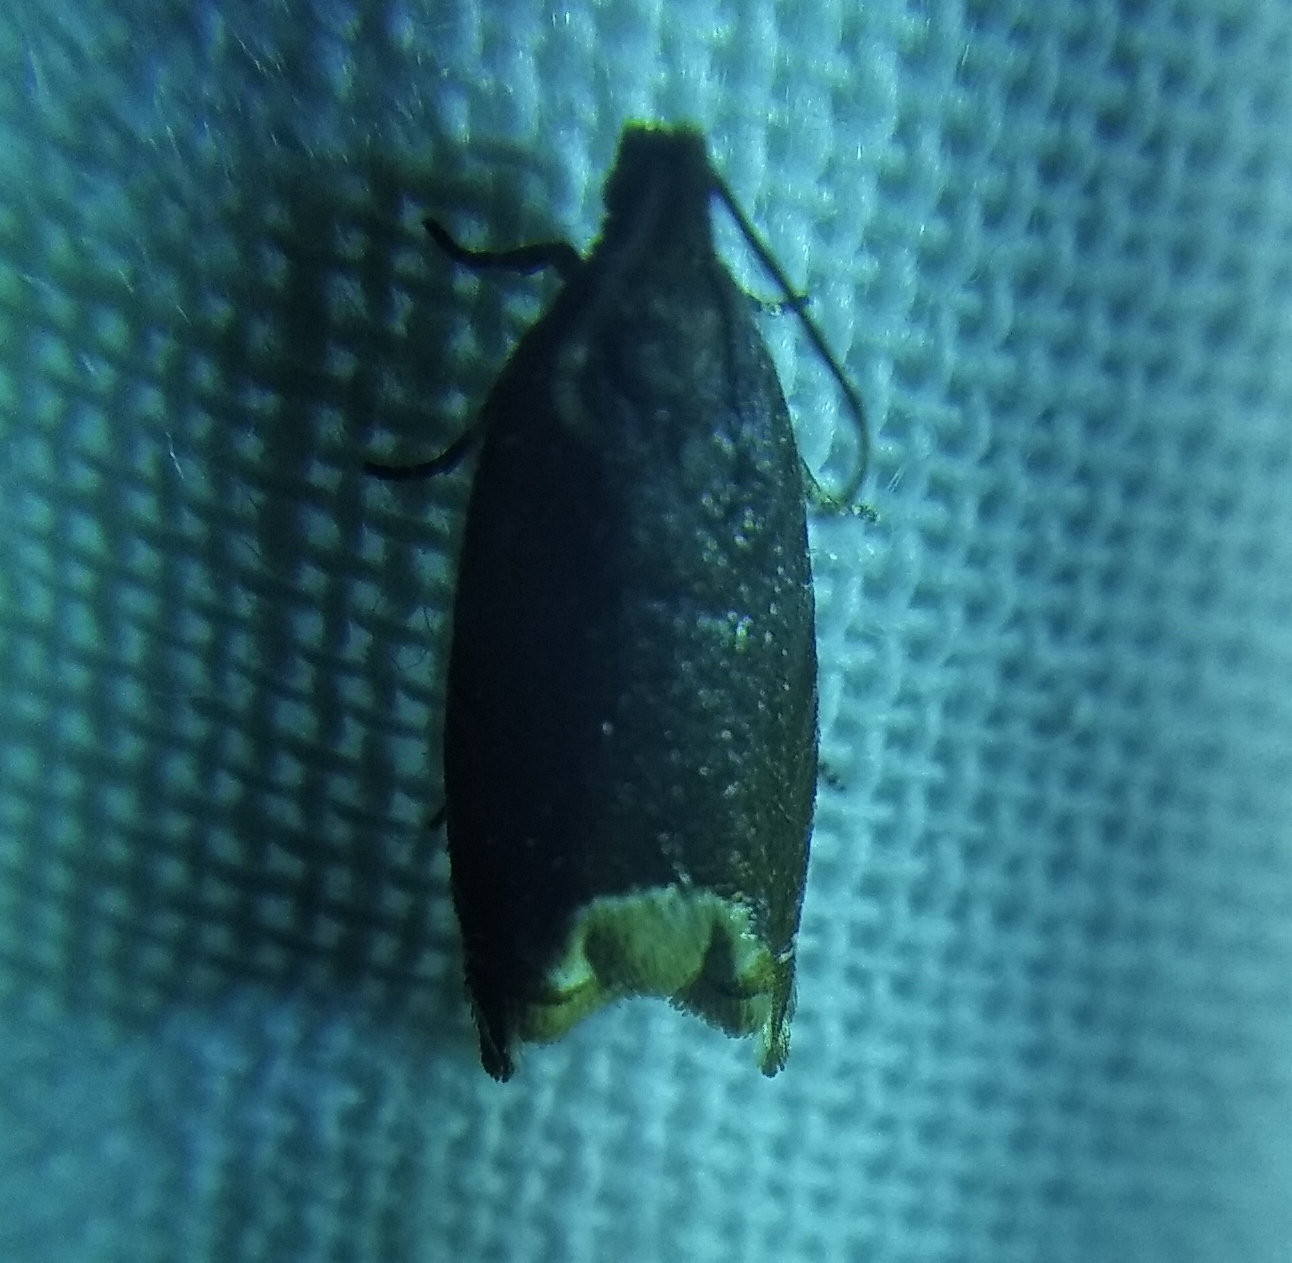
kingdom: Animalia
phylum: Arthropoda
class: Insecta
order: Lepidoptera
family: Tortricidae
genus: Ancylis
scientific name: Ancylis selenana
